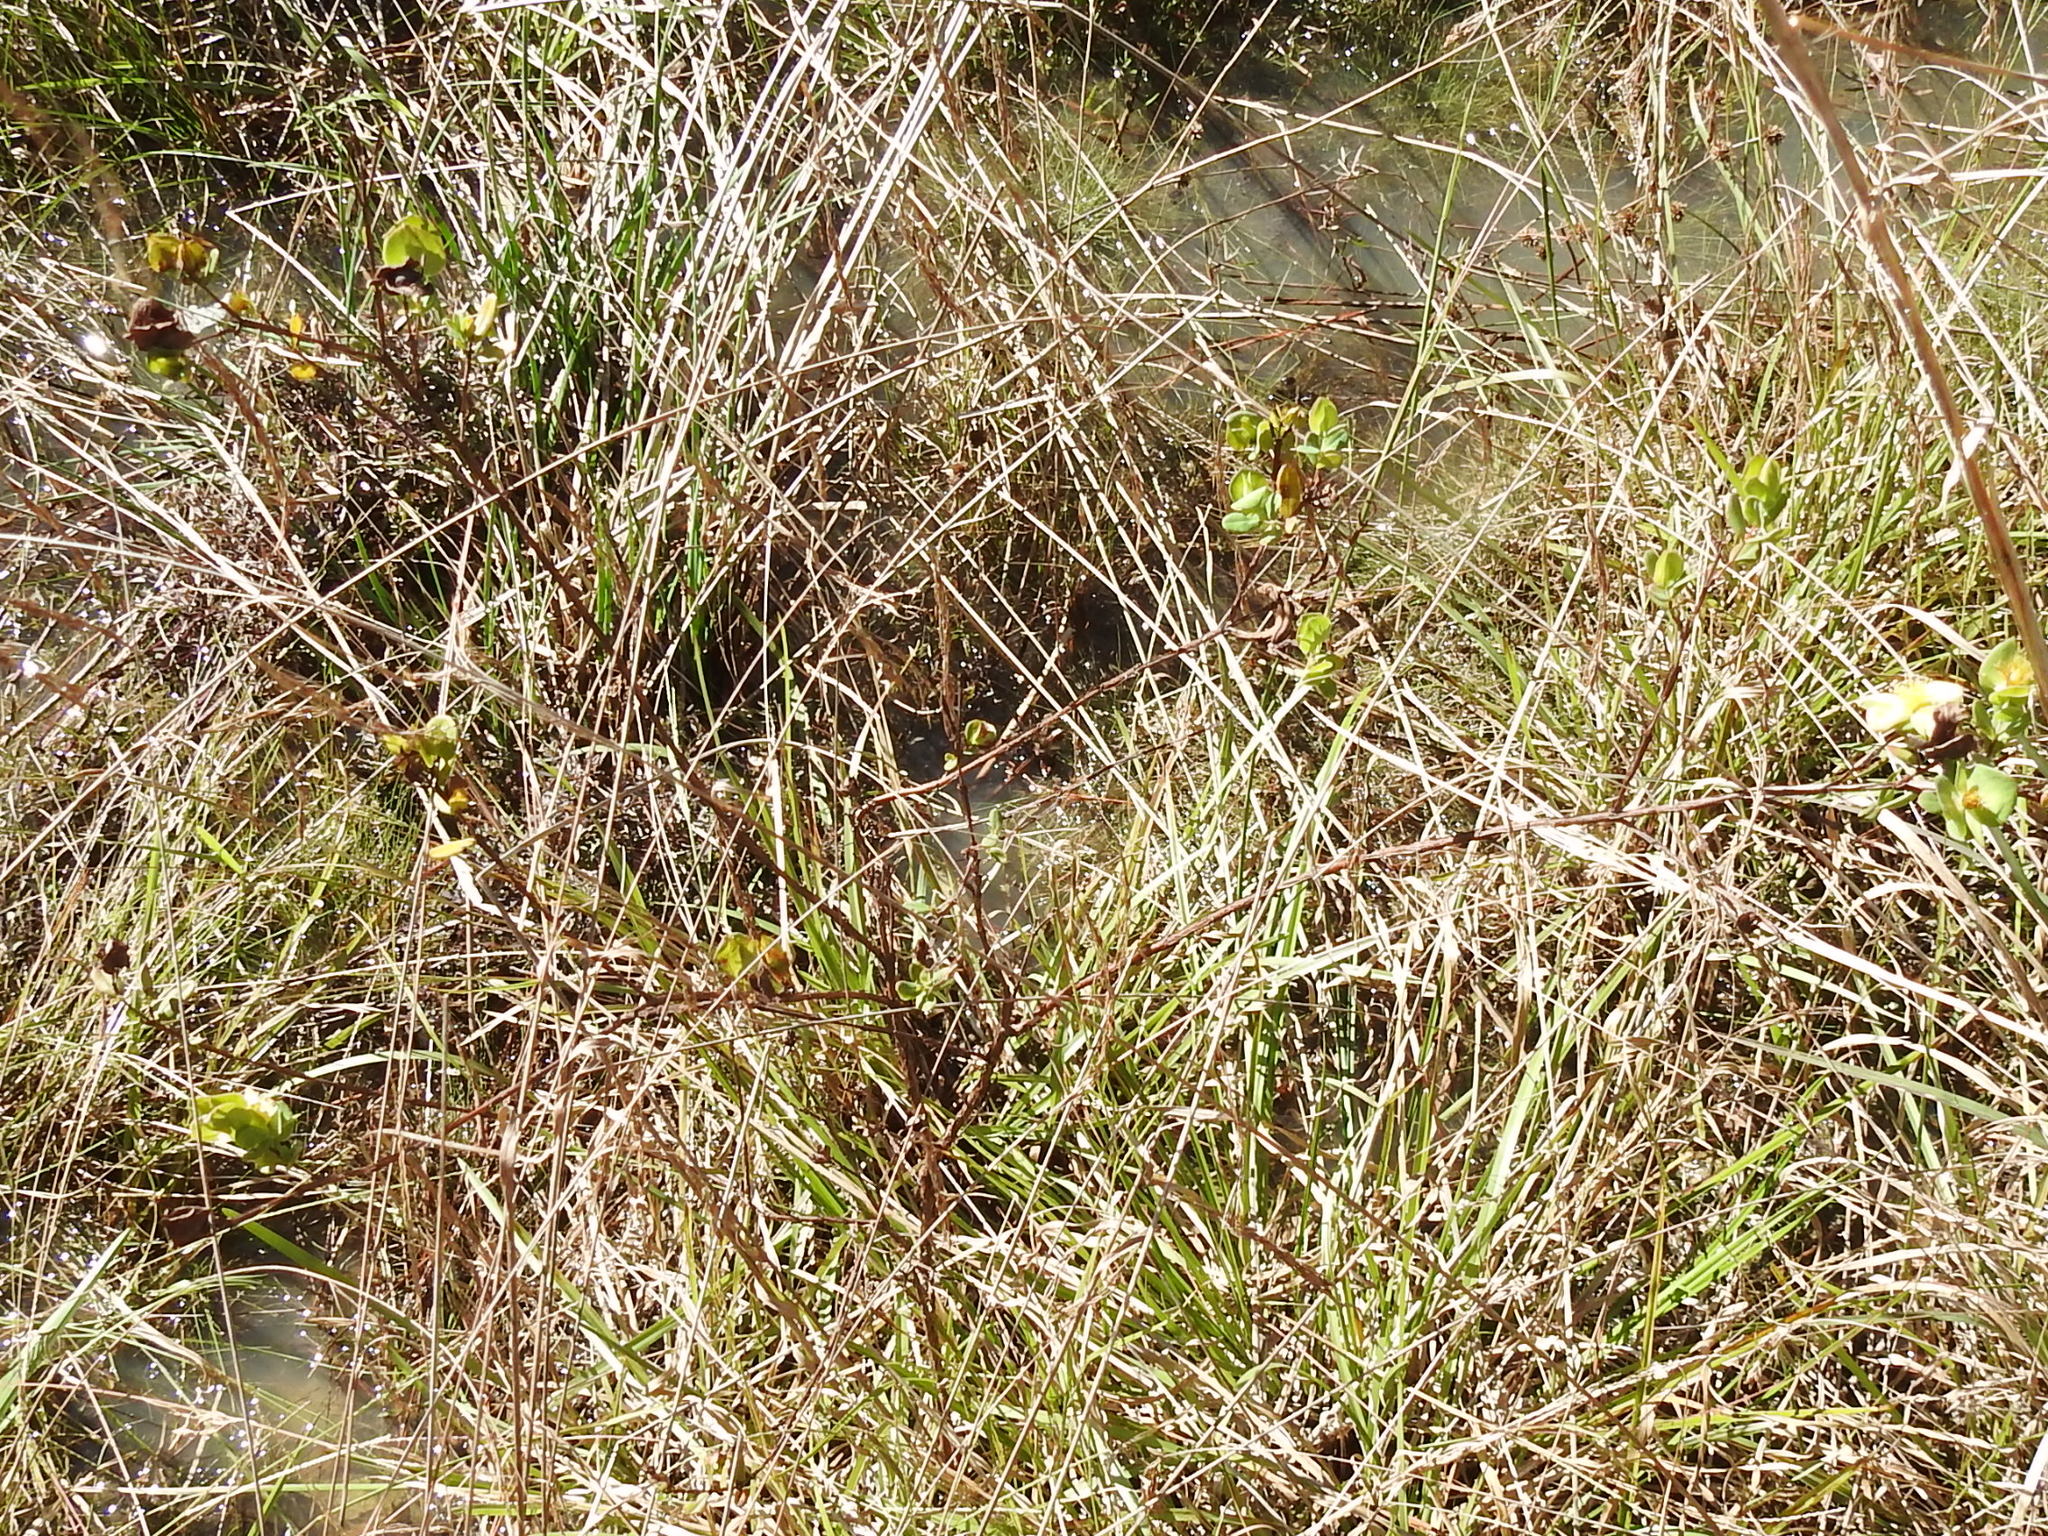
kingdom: Plantae
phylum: Tracheophyta
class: Magnoliopsida
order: Malpighiales
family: Hypericaceae
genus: Hypericum
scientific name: Hypericum crux-andreae
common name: St.-peter's-wort
